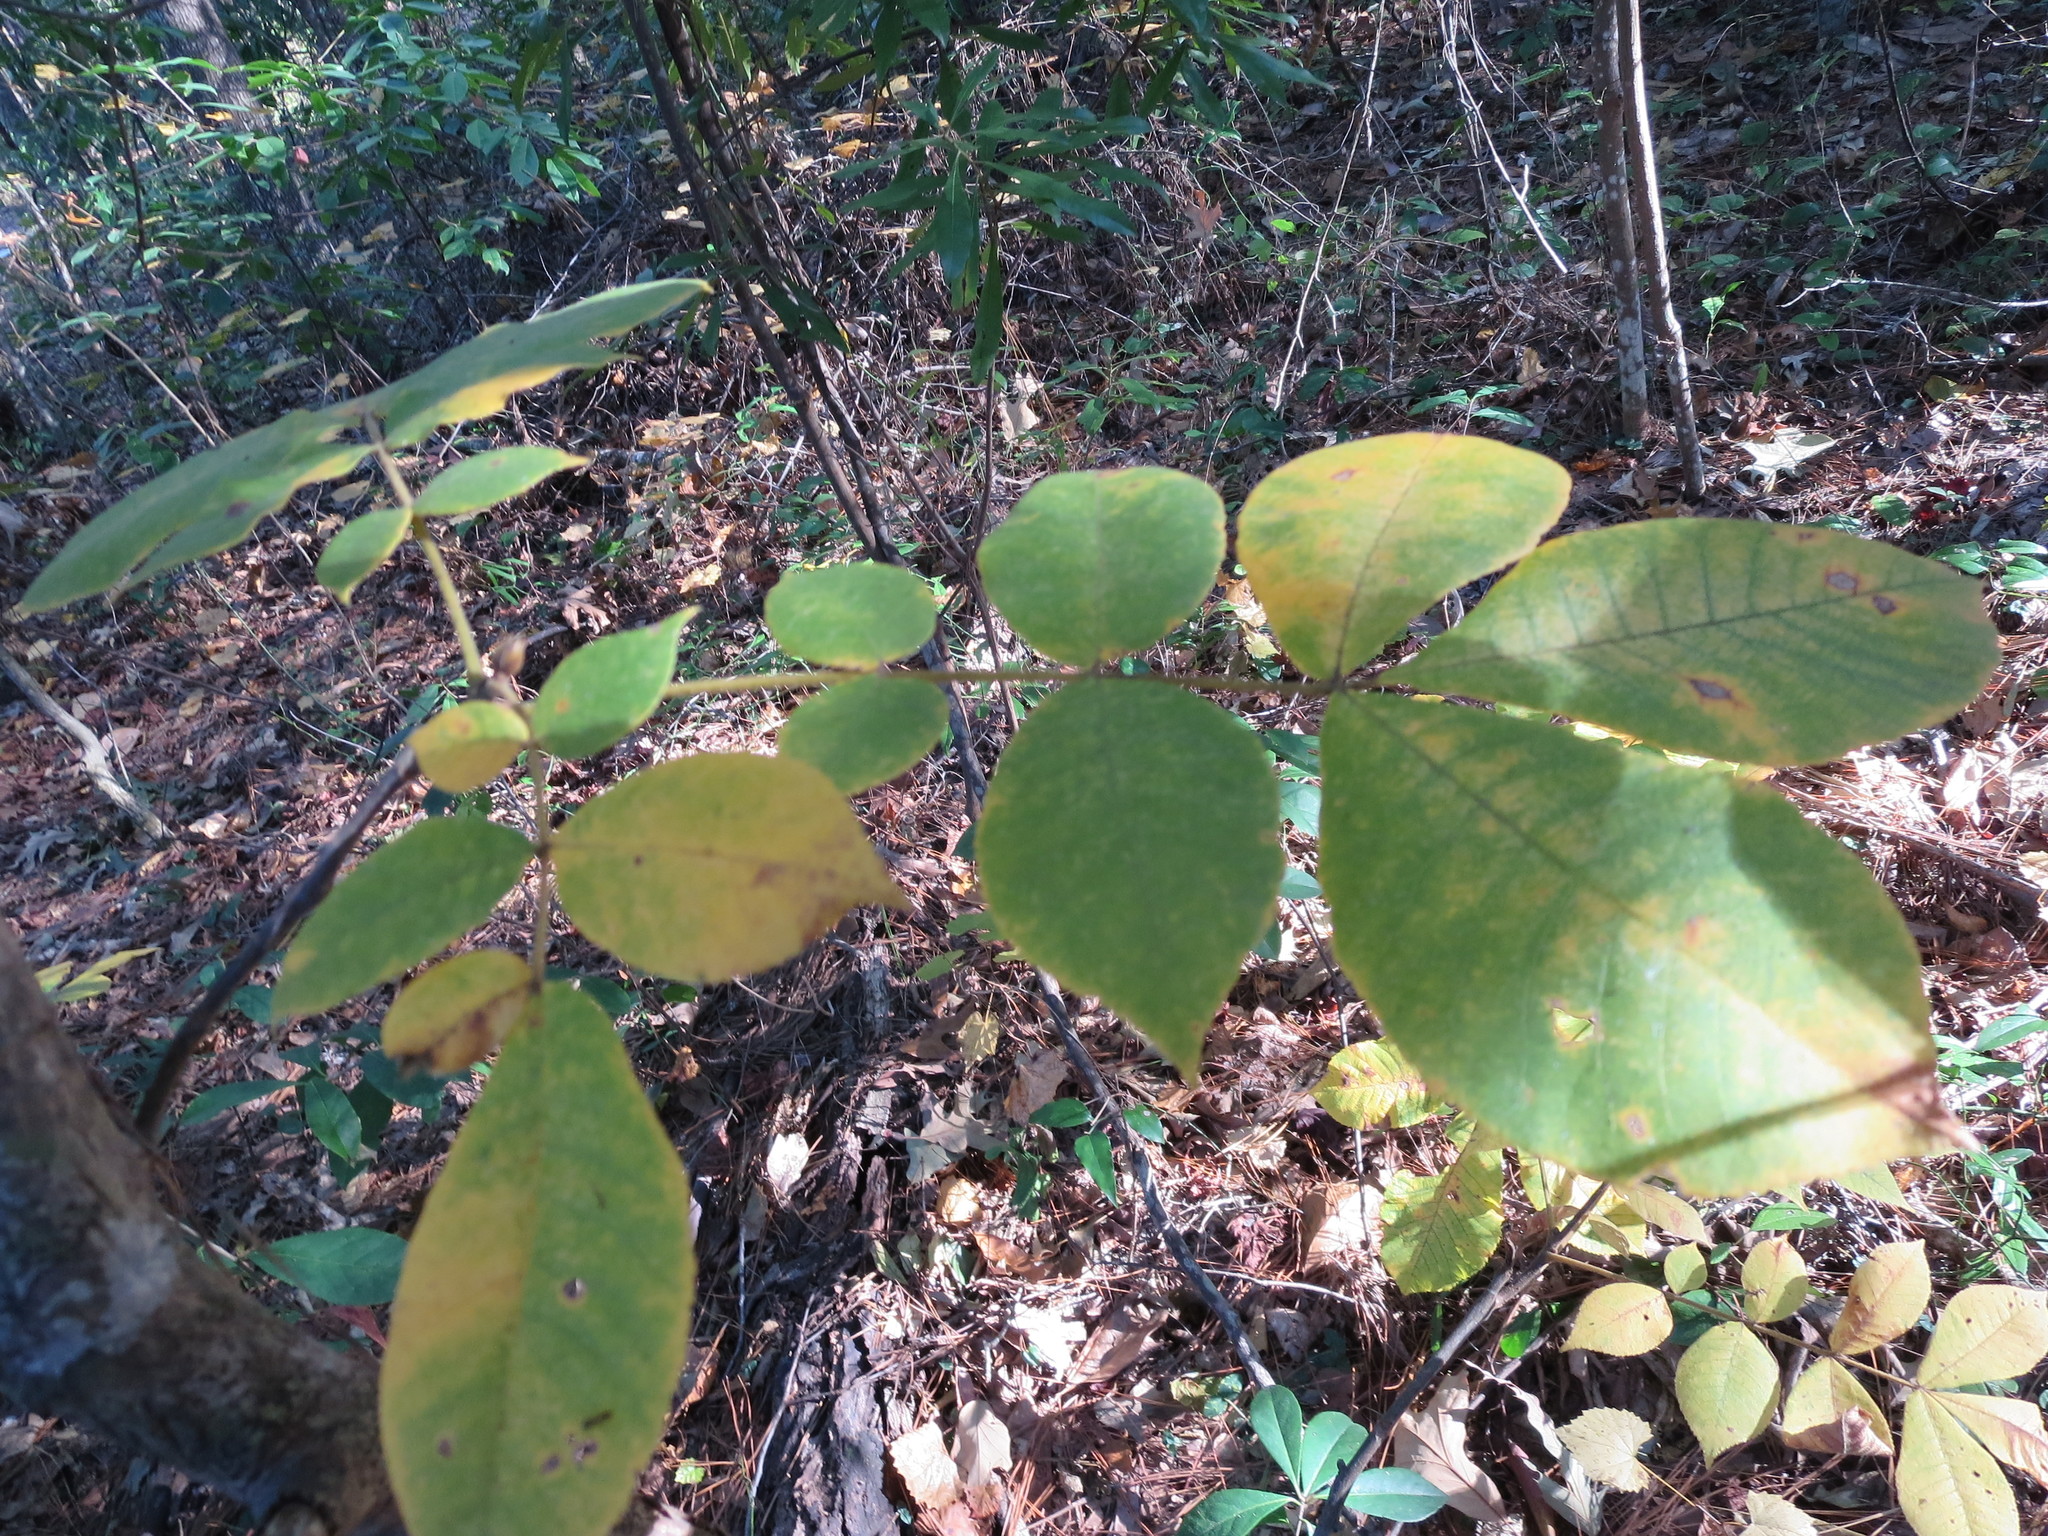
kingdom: Plantae
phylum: Tracheophyta
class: Magnoliopsida
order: Fagales
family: Juglandaceae
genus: Carya
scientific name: Carya alba
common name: Mockernut hickory
